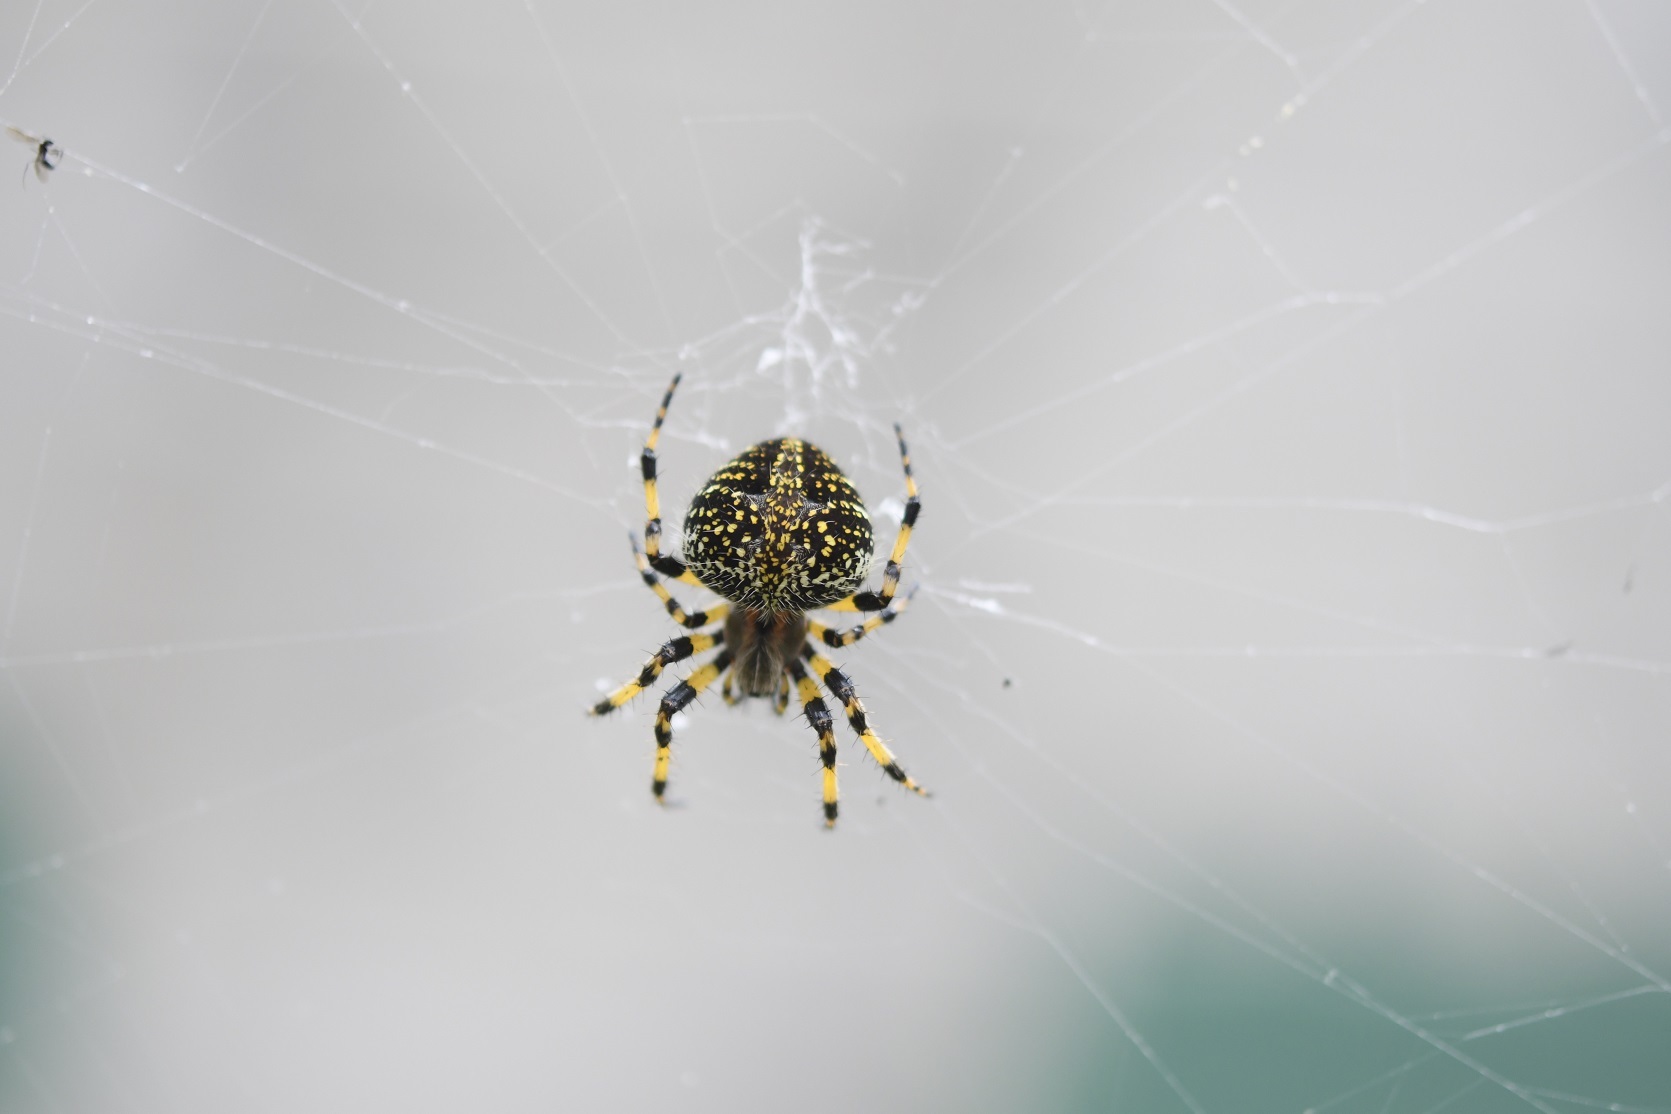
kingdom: Animalia
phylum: Arthropoda
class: Arachnida
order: Araneae
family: Araneidae
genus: Neoscona
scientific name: Neoscona orizabensis
